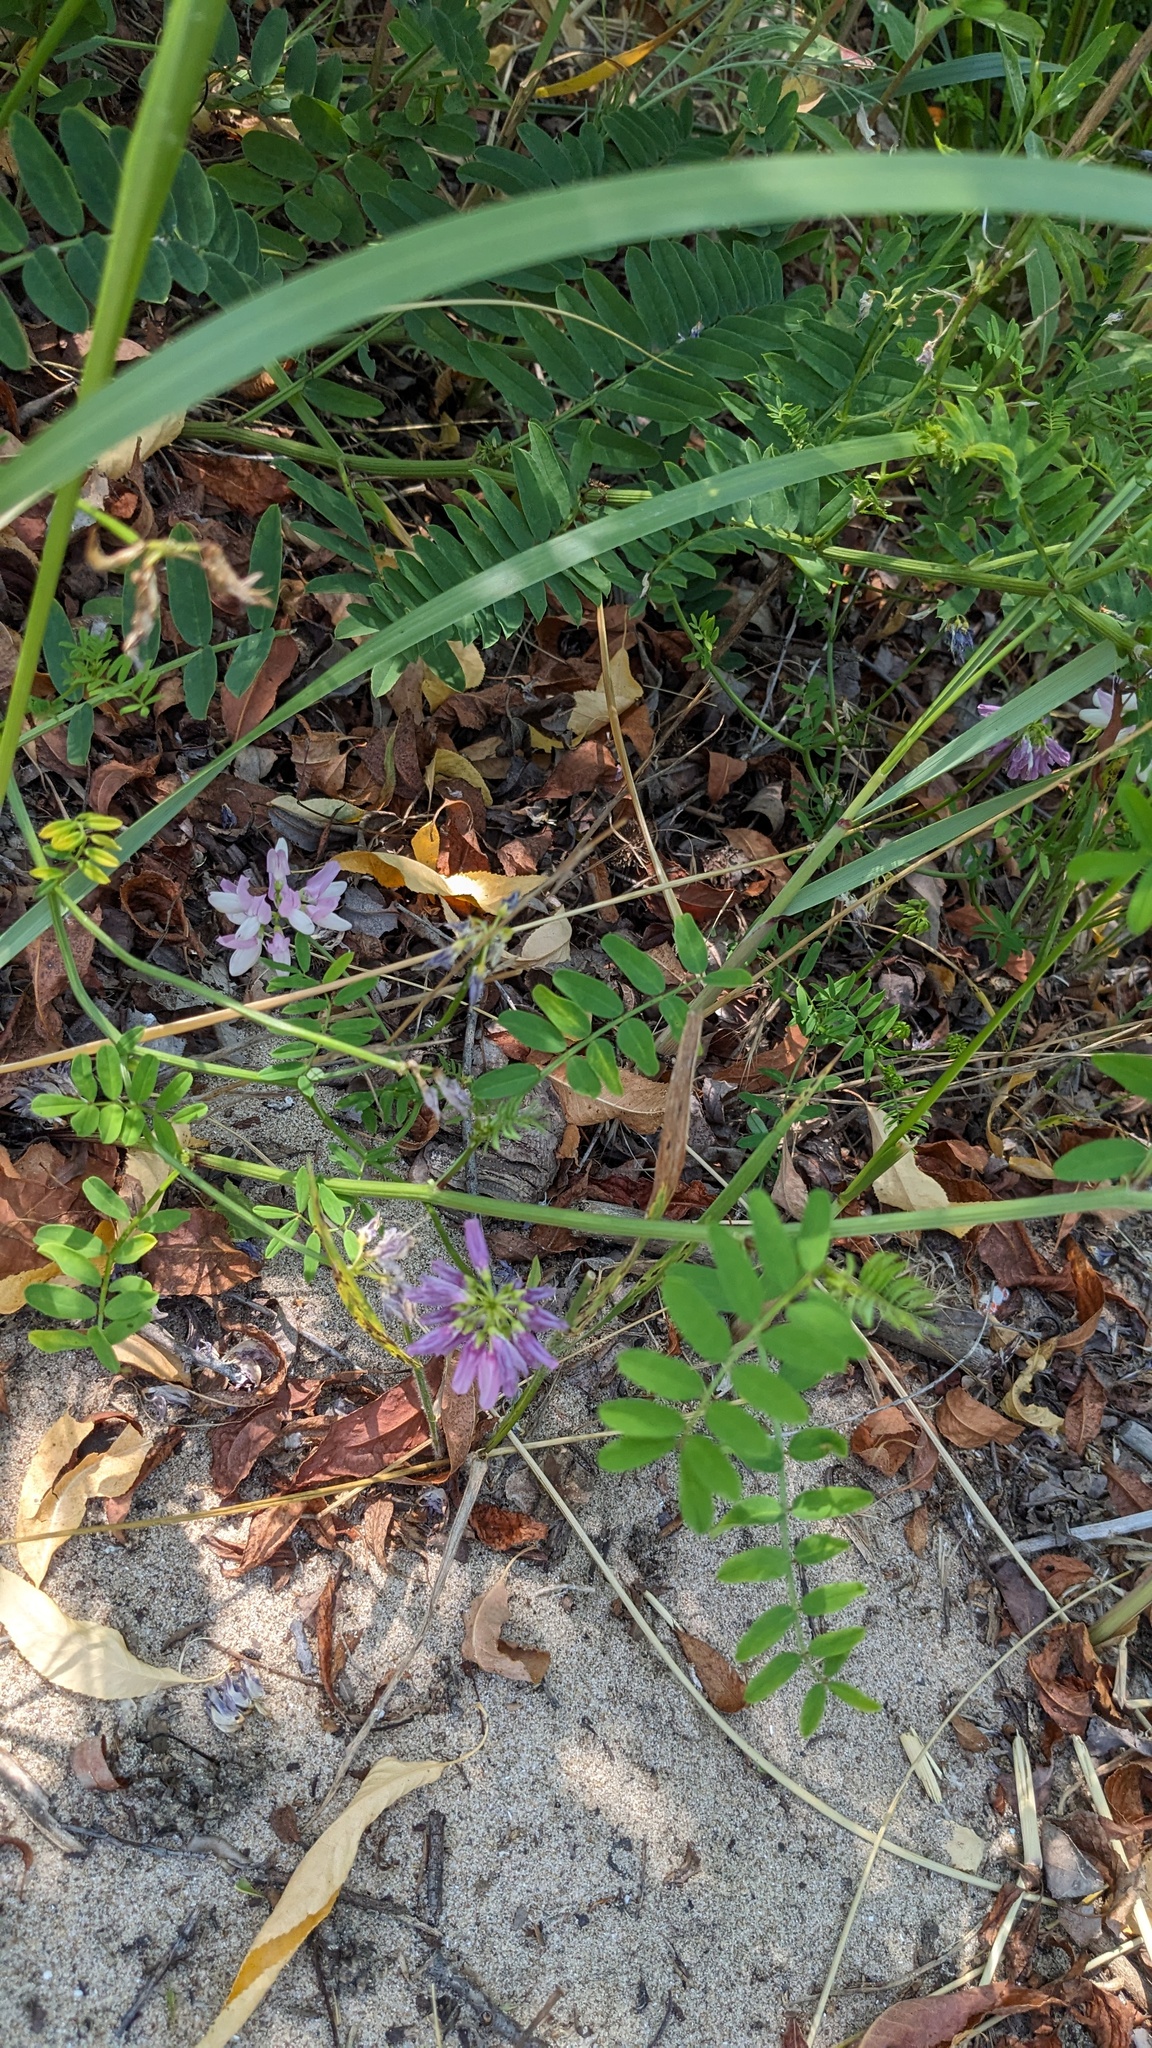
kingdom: Plantae
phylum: Tracheophyta
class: Magnoliopsida
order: Fabales
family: Fabaceae
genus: Coronilla
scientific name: Coronilla varia
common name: Crownvetch
